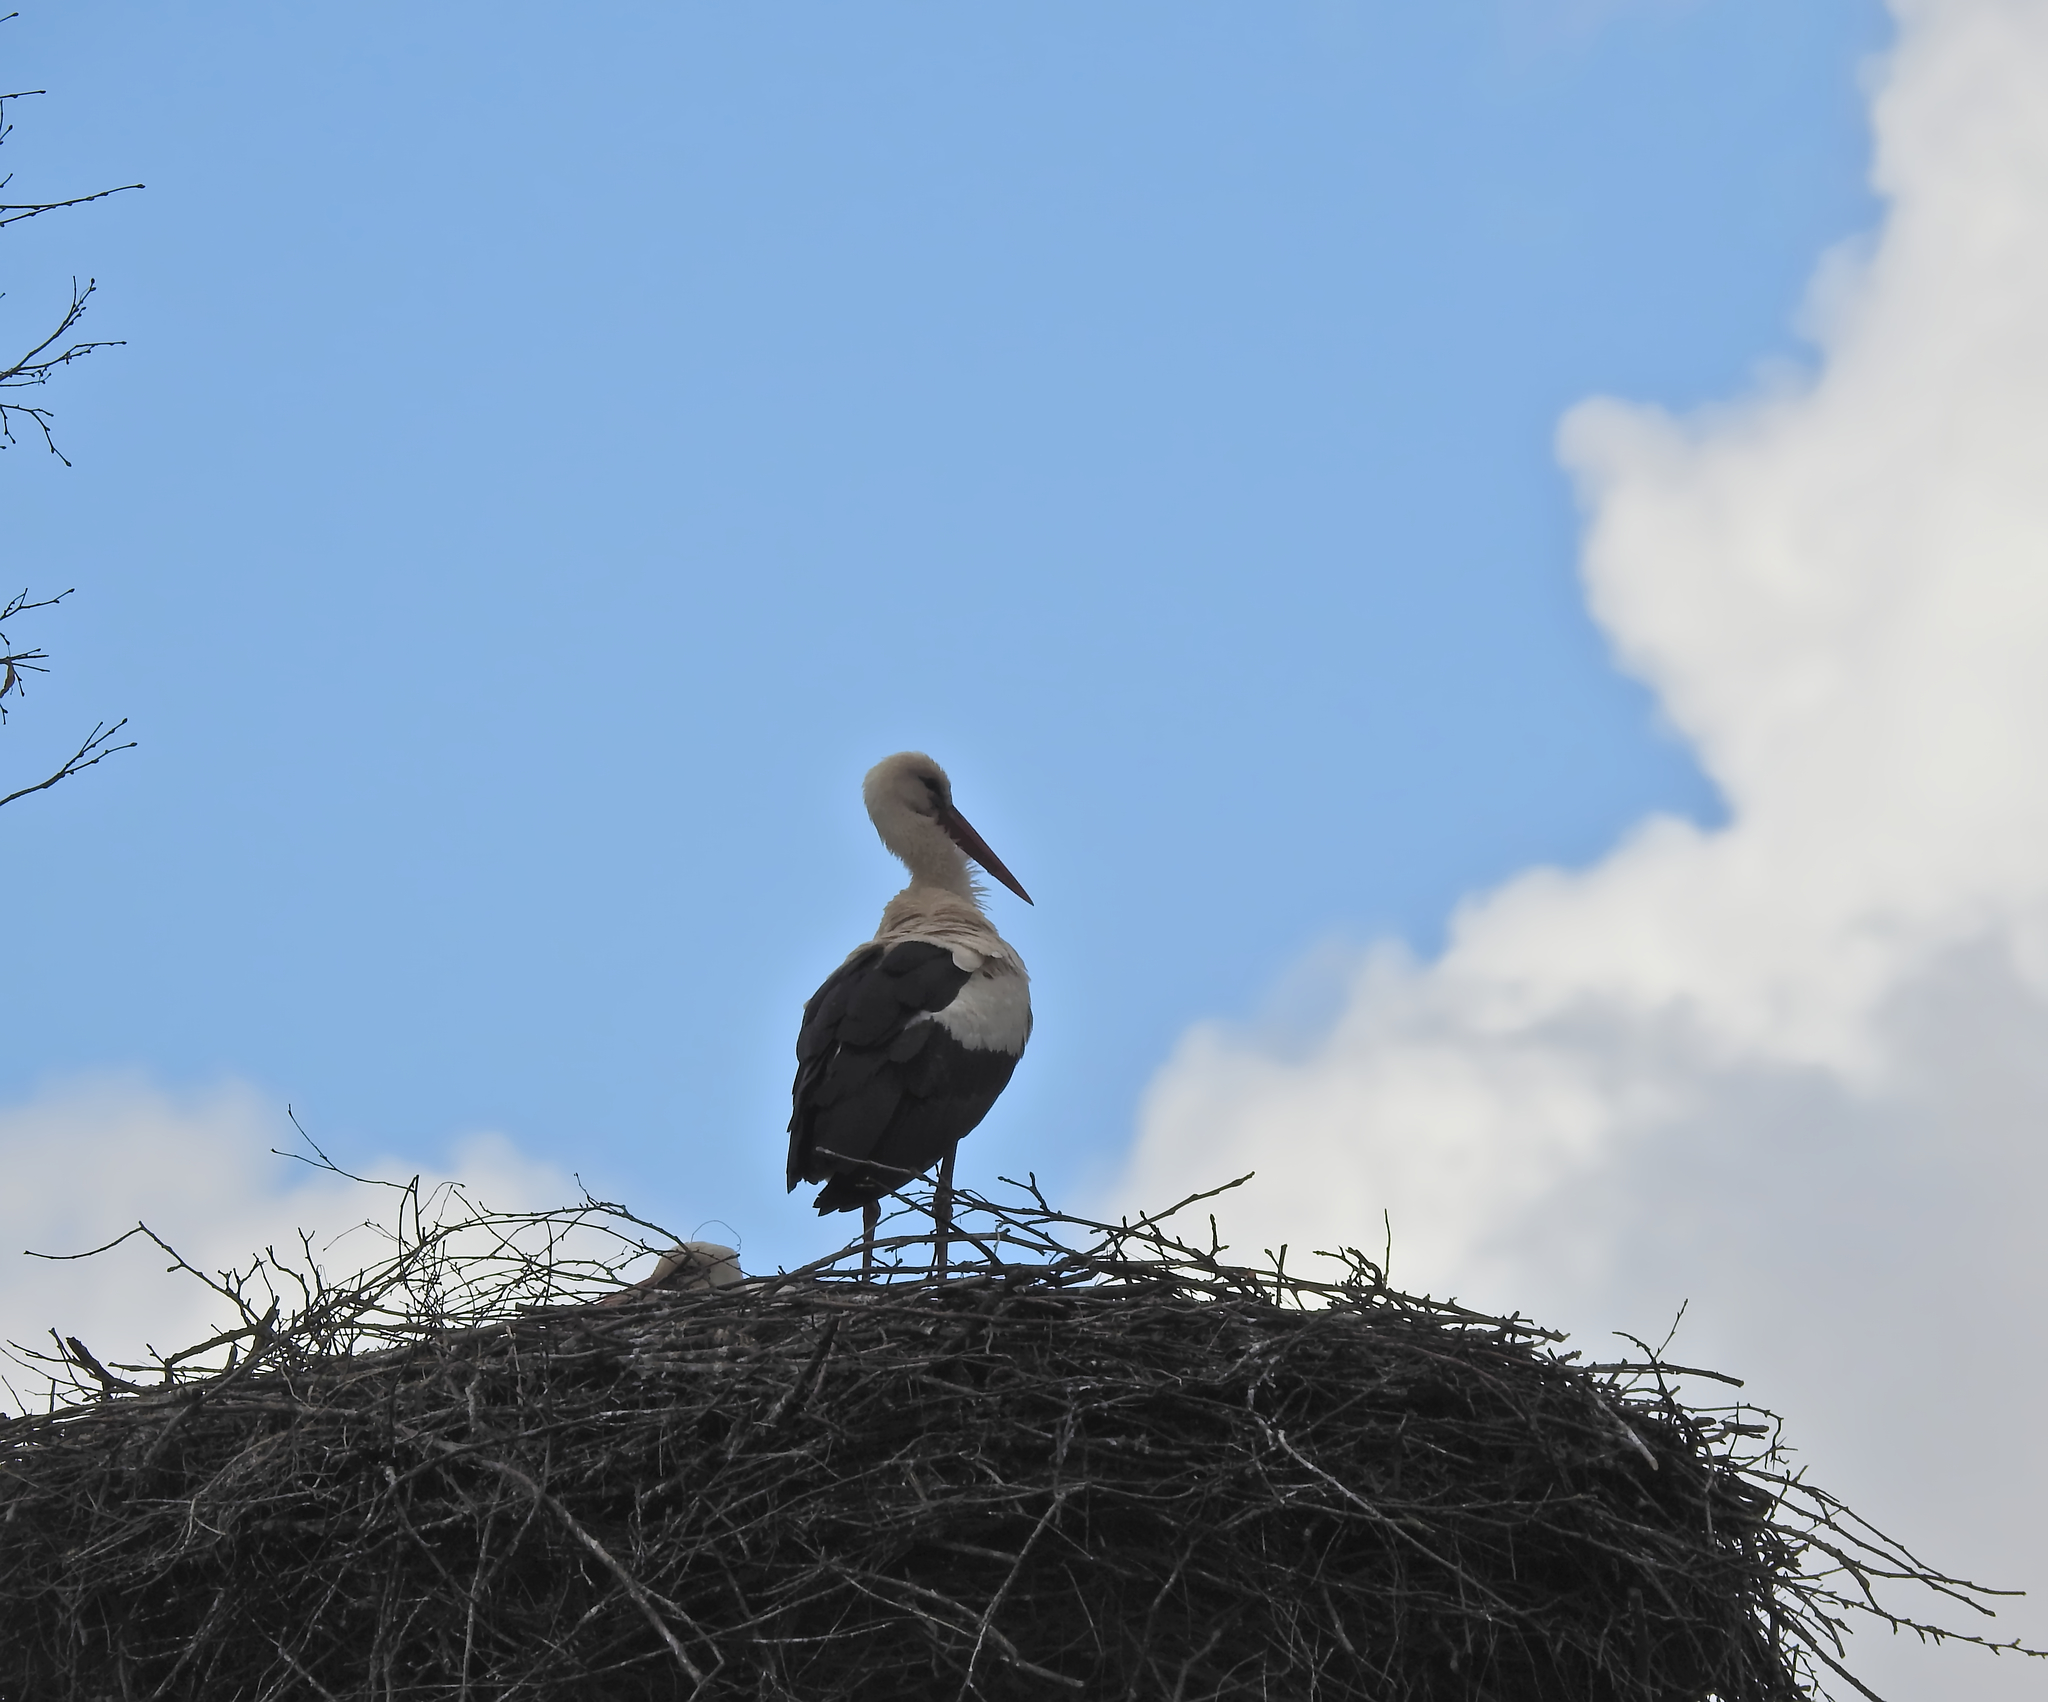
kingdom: Animalia
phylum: Chordata
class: Aves
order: Ciconiiformes
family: Ciconiidae
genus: Ciconia
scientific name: Ciconia ciconia
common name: White stork
